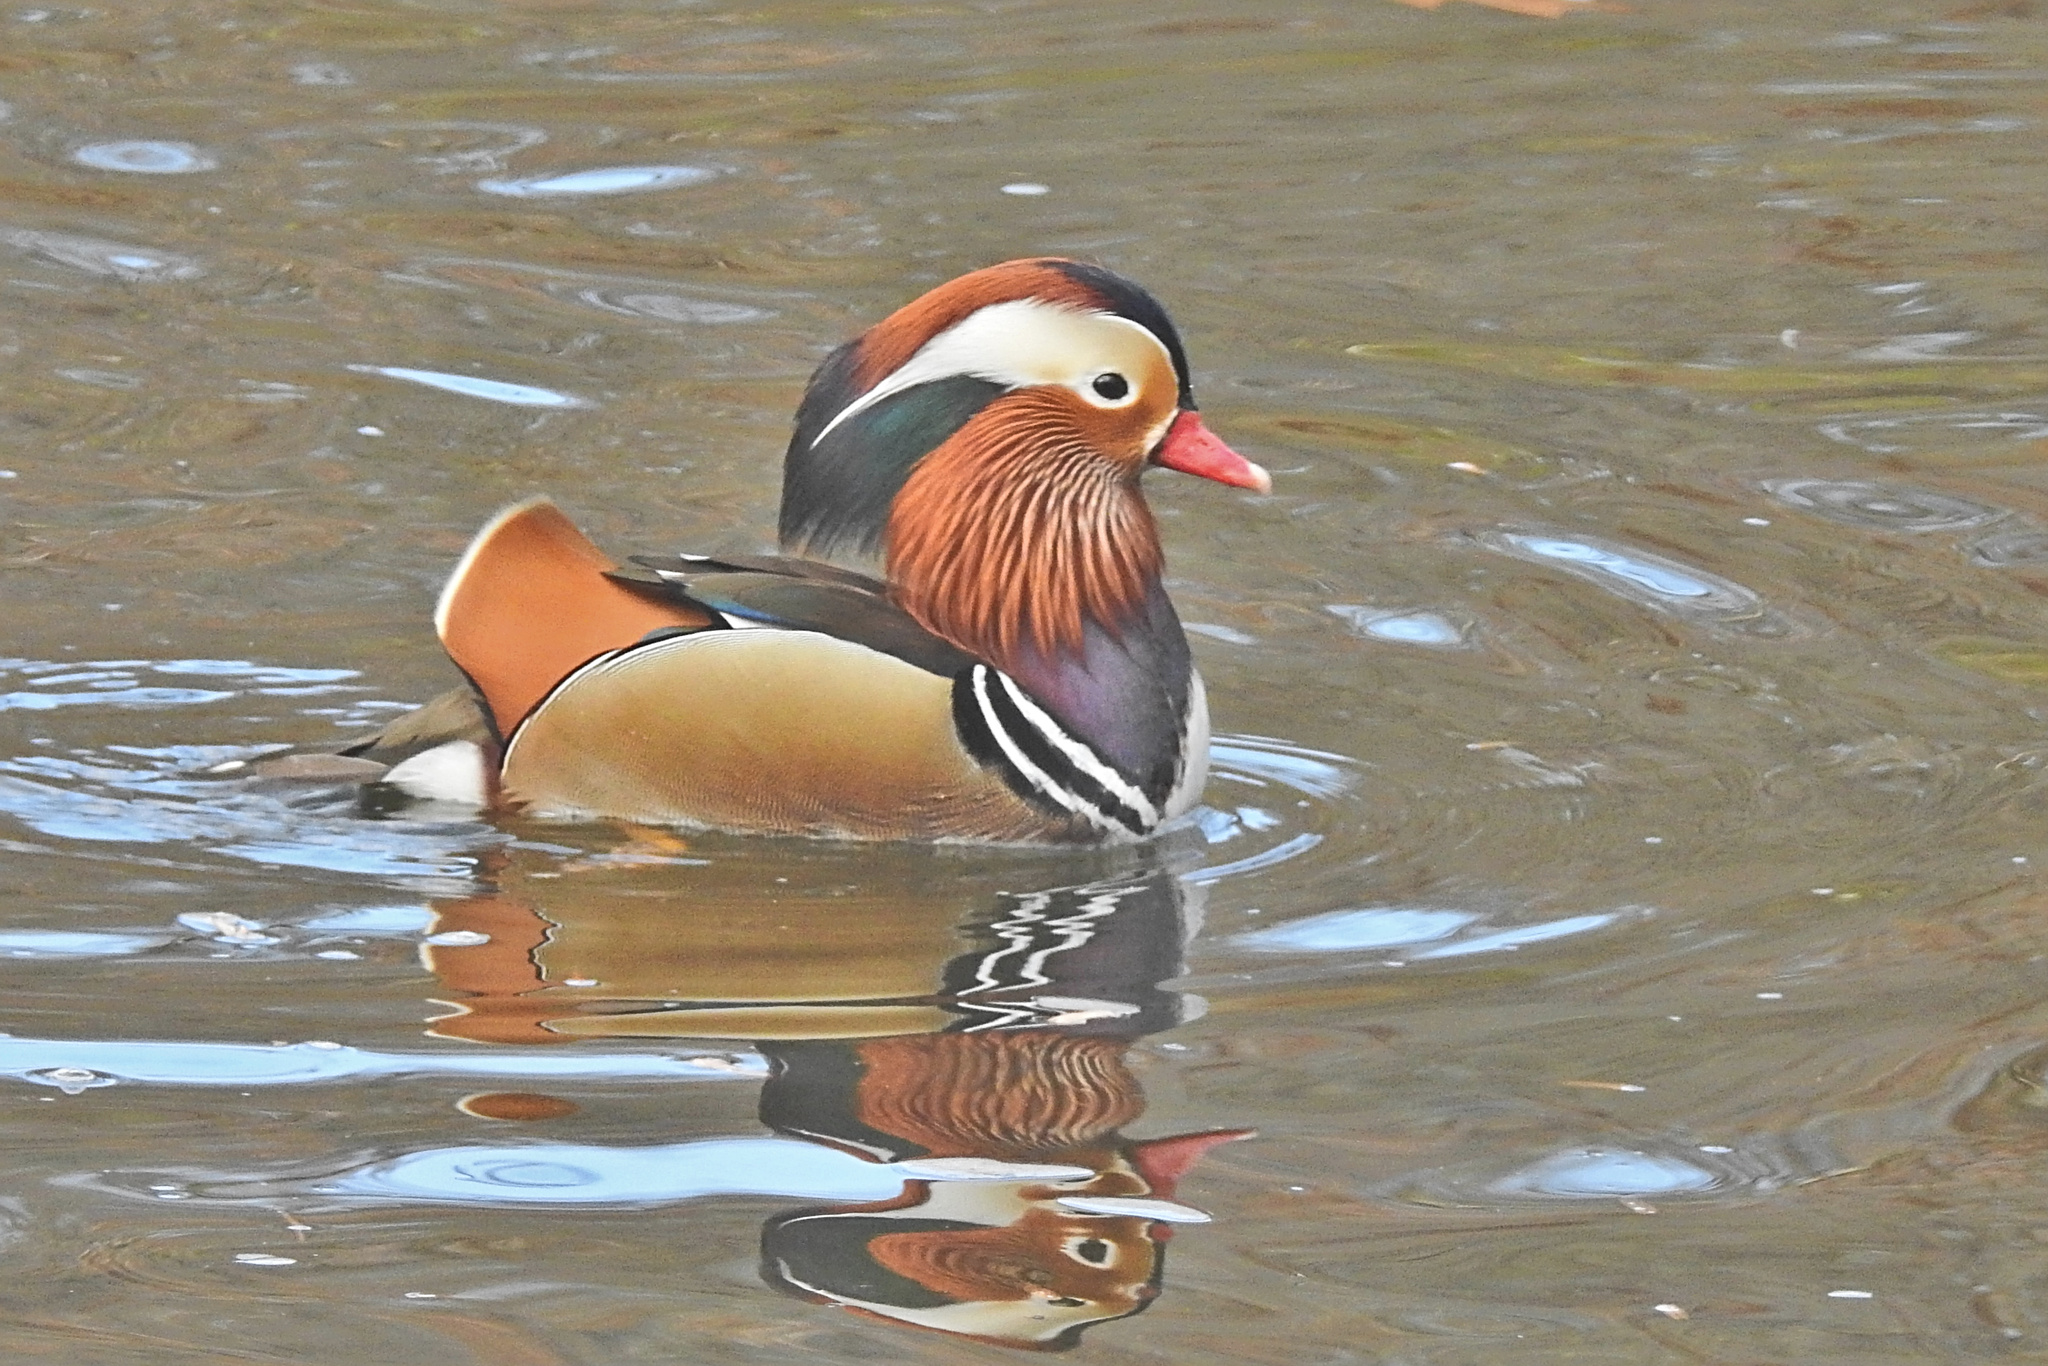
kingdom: Animalia
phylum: Chordata
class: Aves
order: Anseriformes
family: Anatidae
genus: Aix
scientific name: Aix galericulata
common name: Mandarin duck
